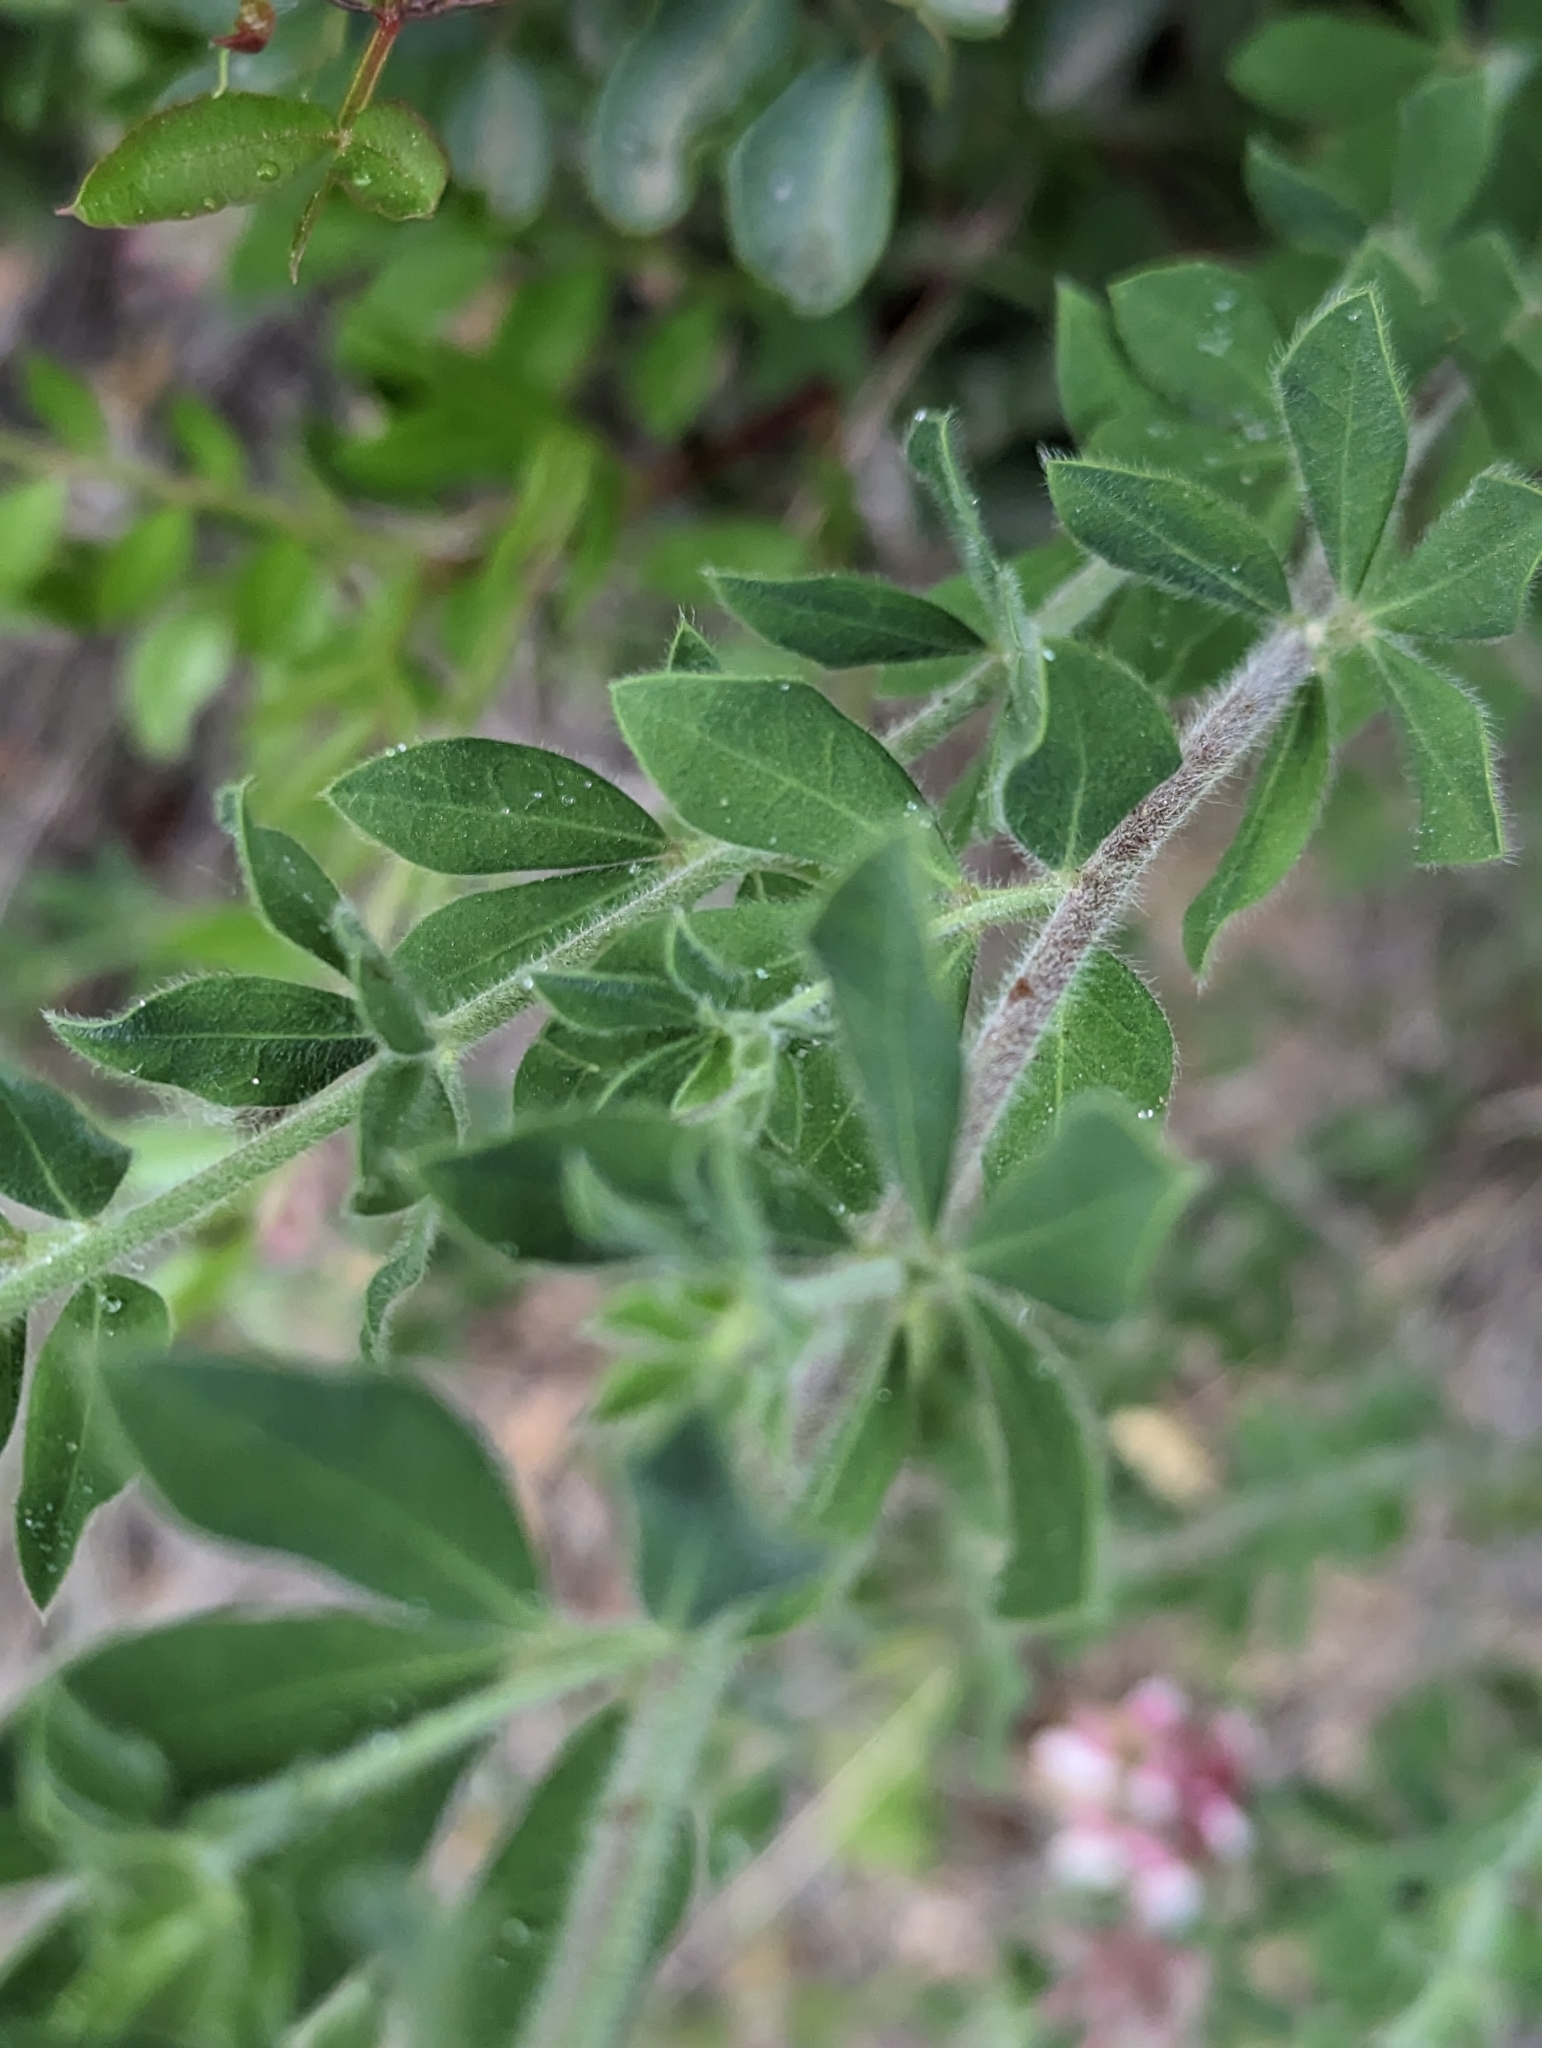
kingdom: Plantae
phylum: Tracheophyta
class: Magnoliopsida
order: Fabales
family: Fabaceae
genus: Lotus
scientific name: Lotus hirsutus
